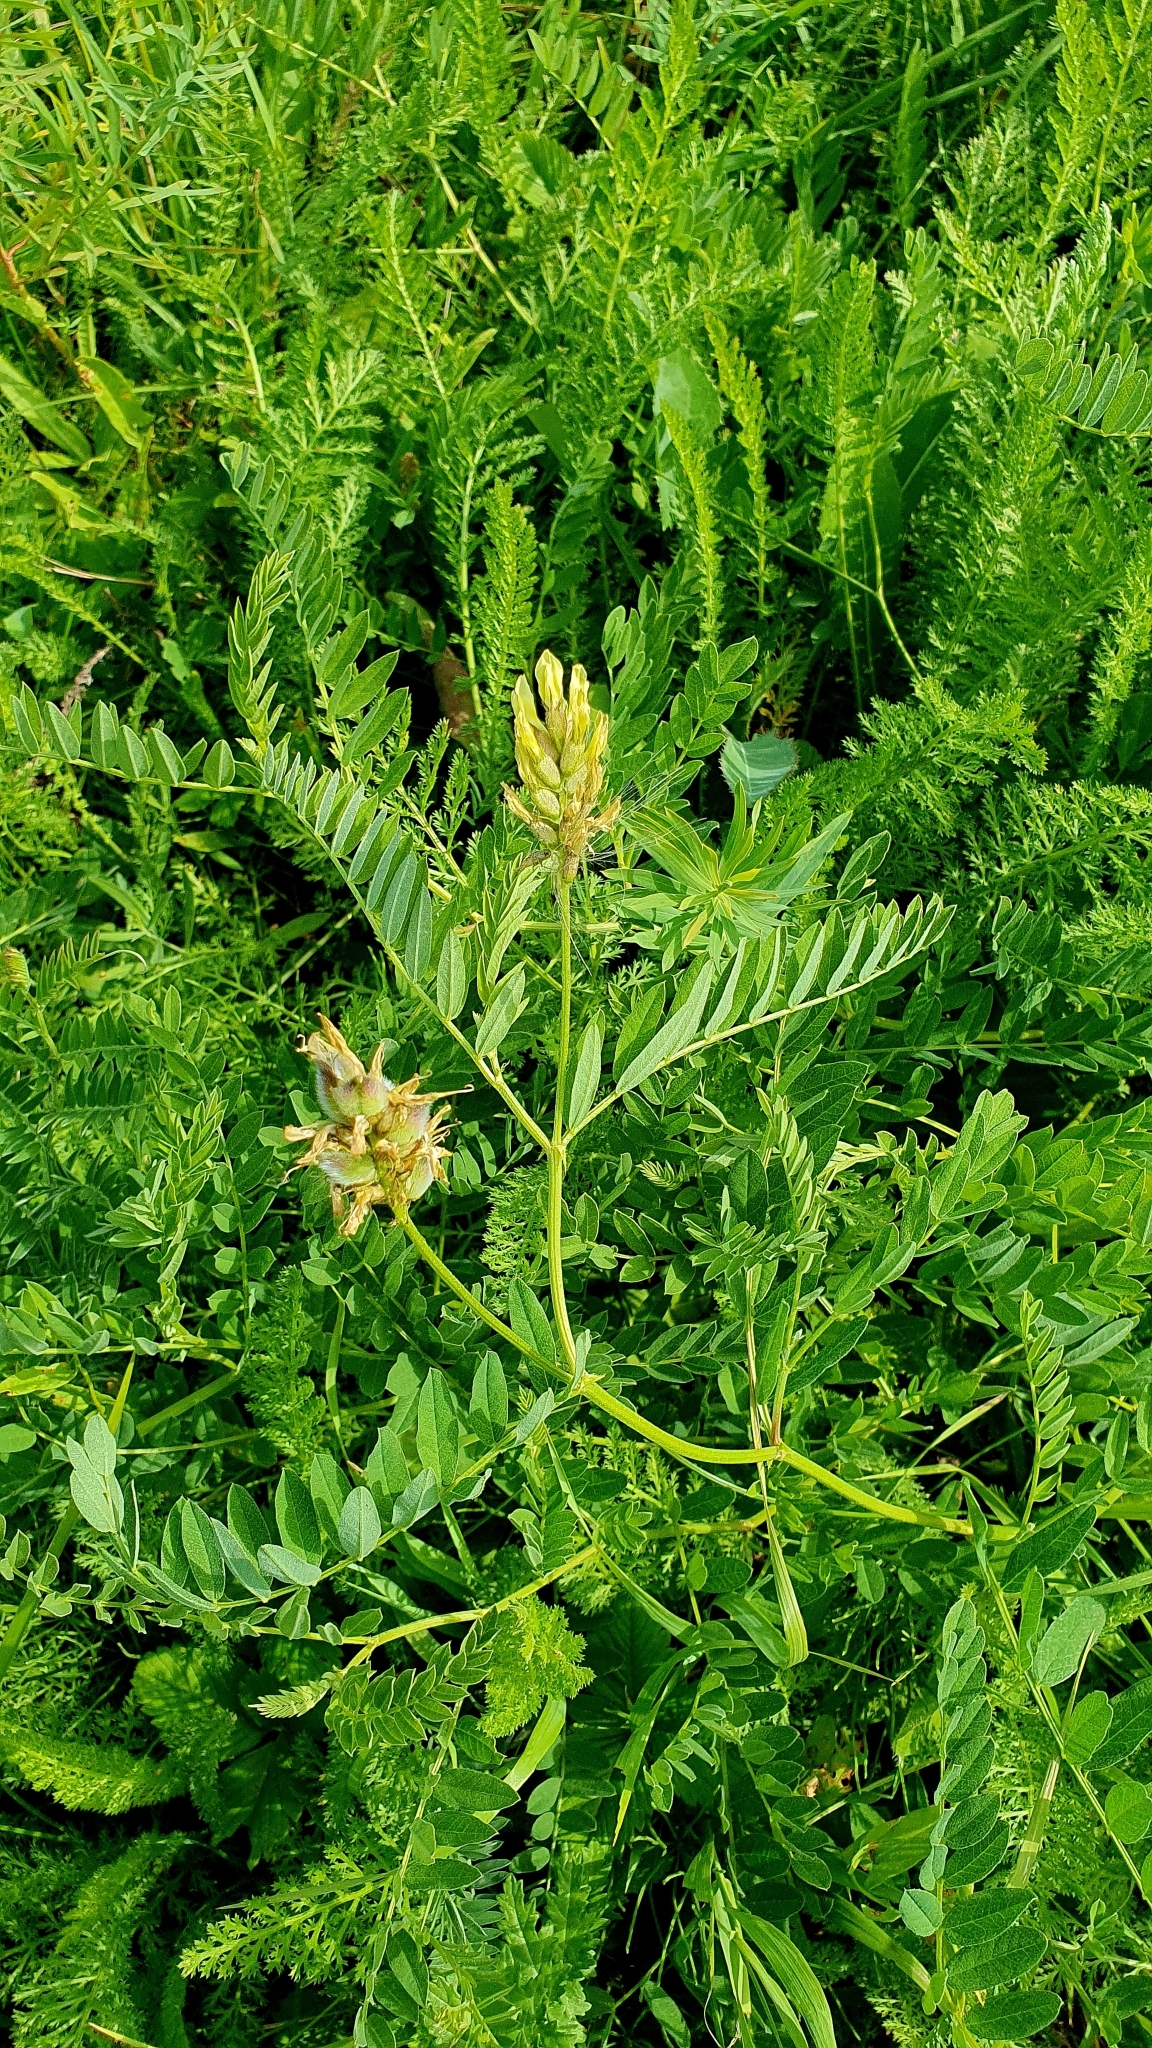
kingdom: Plantae
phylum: Tracheophyta
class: Magnoliopsida
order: Fabales
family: Fabaceae
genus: Astragalus
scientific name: Astragalus cicer
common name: Chick-pea milk-vetch
